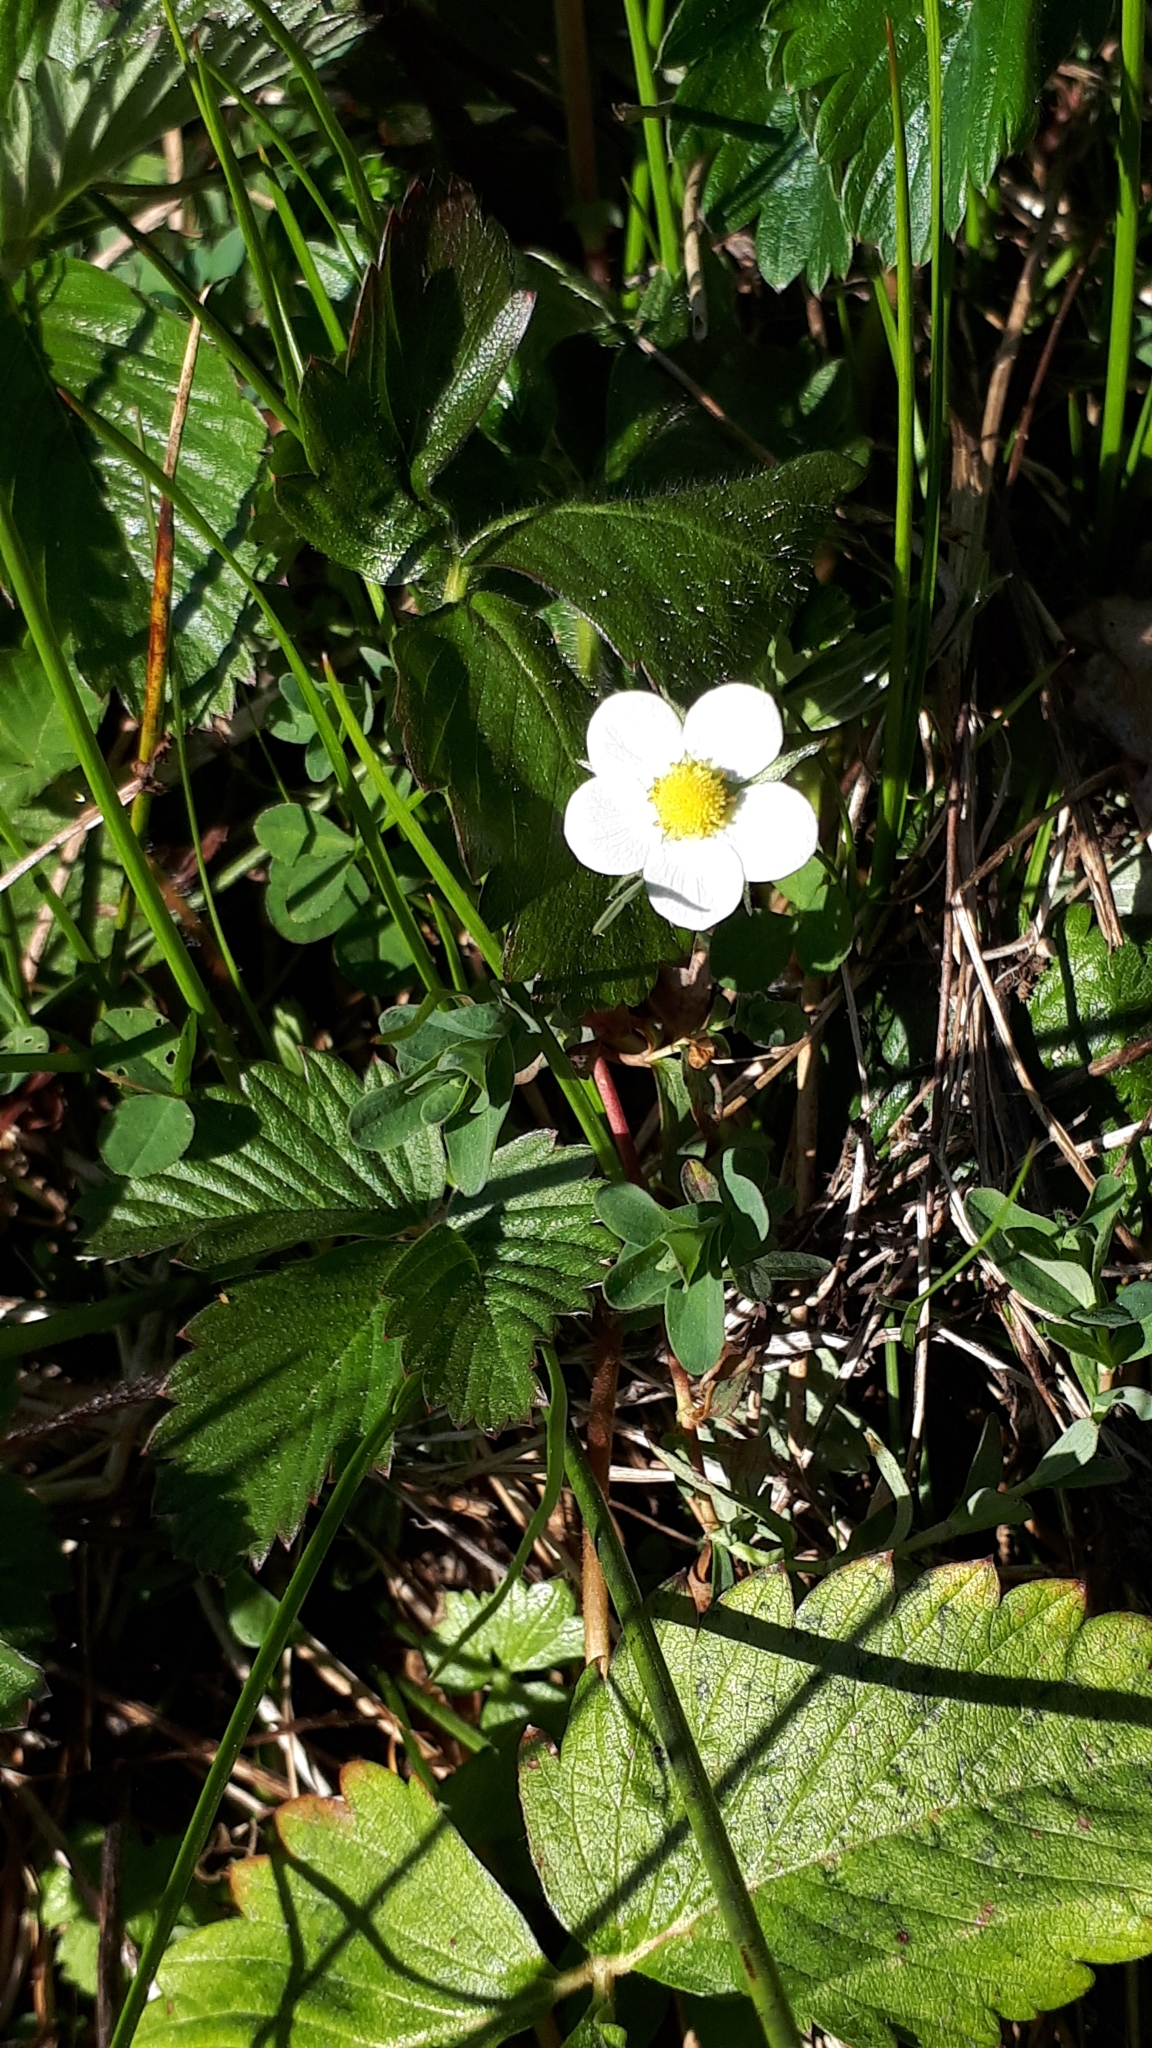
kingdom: Plantae
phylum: Tracheophyta
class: Magnoliopsida
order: Rosales
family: Rosaceae
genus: Fragaria
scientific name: Fragaria vesca
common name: Wild strawberry
